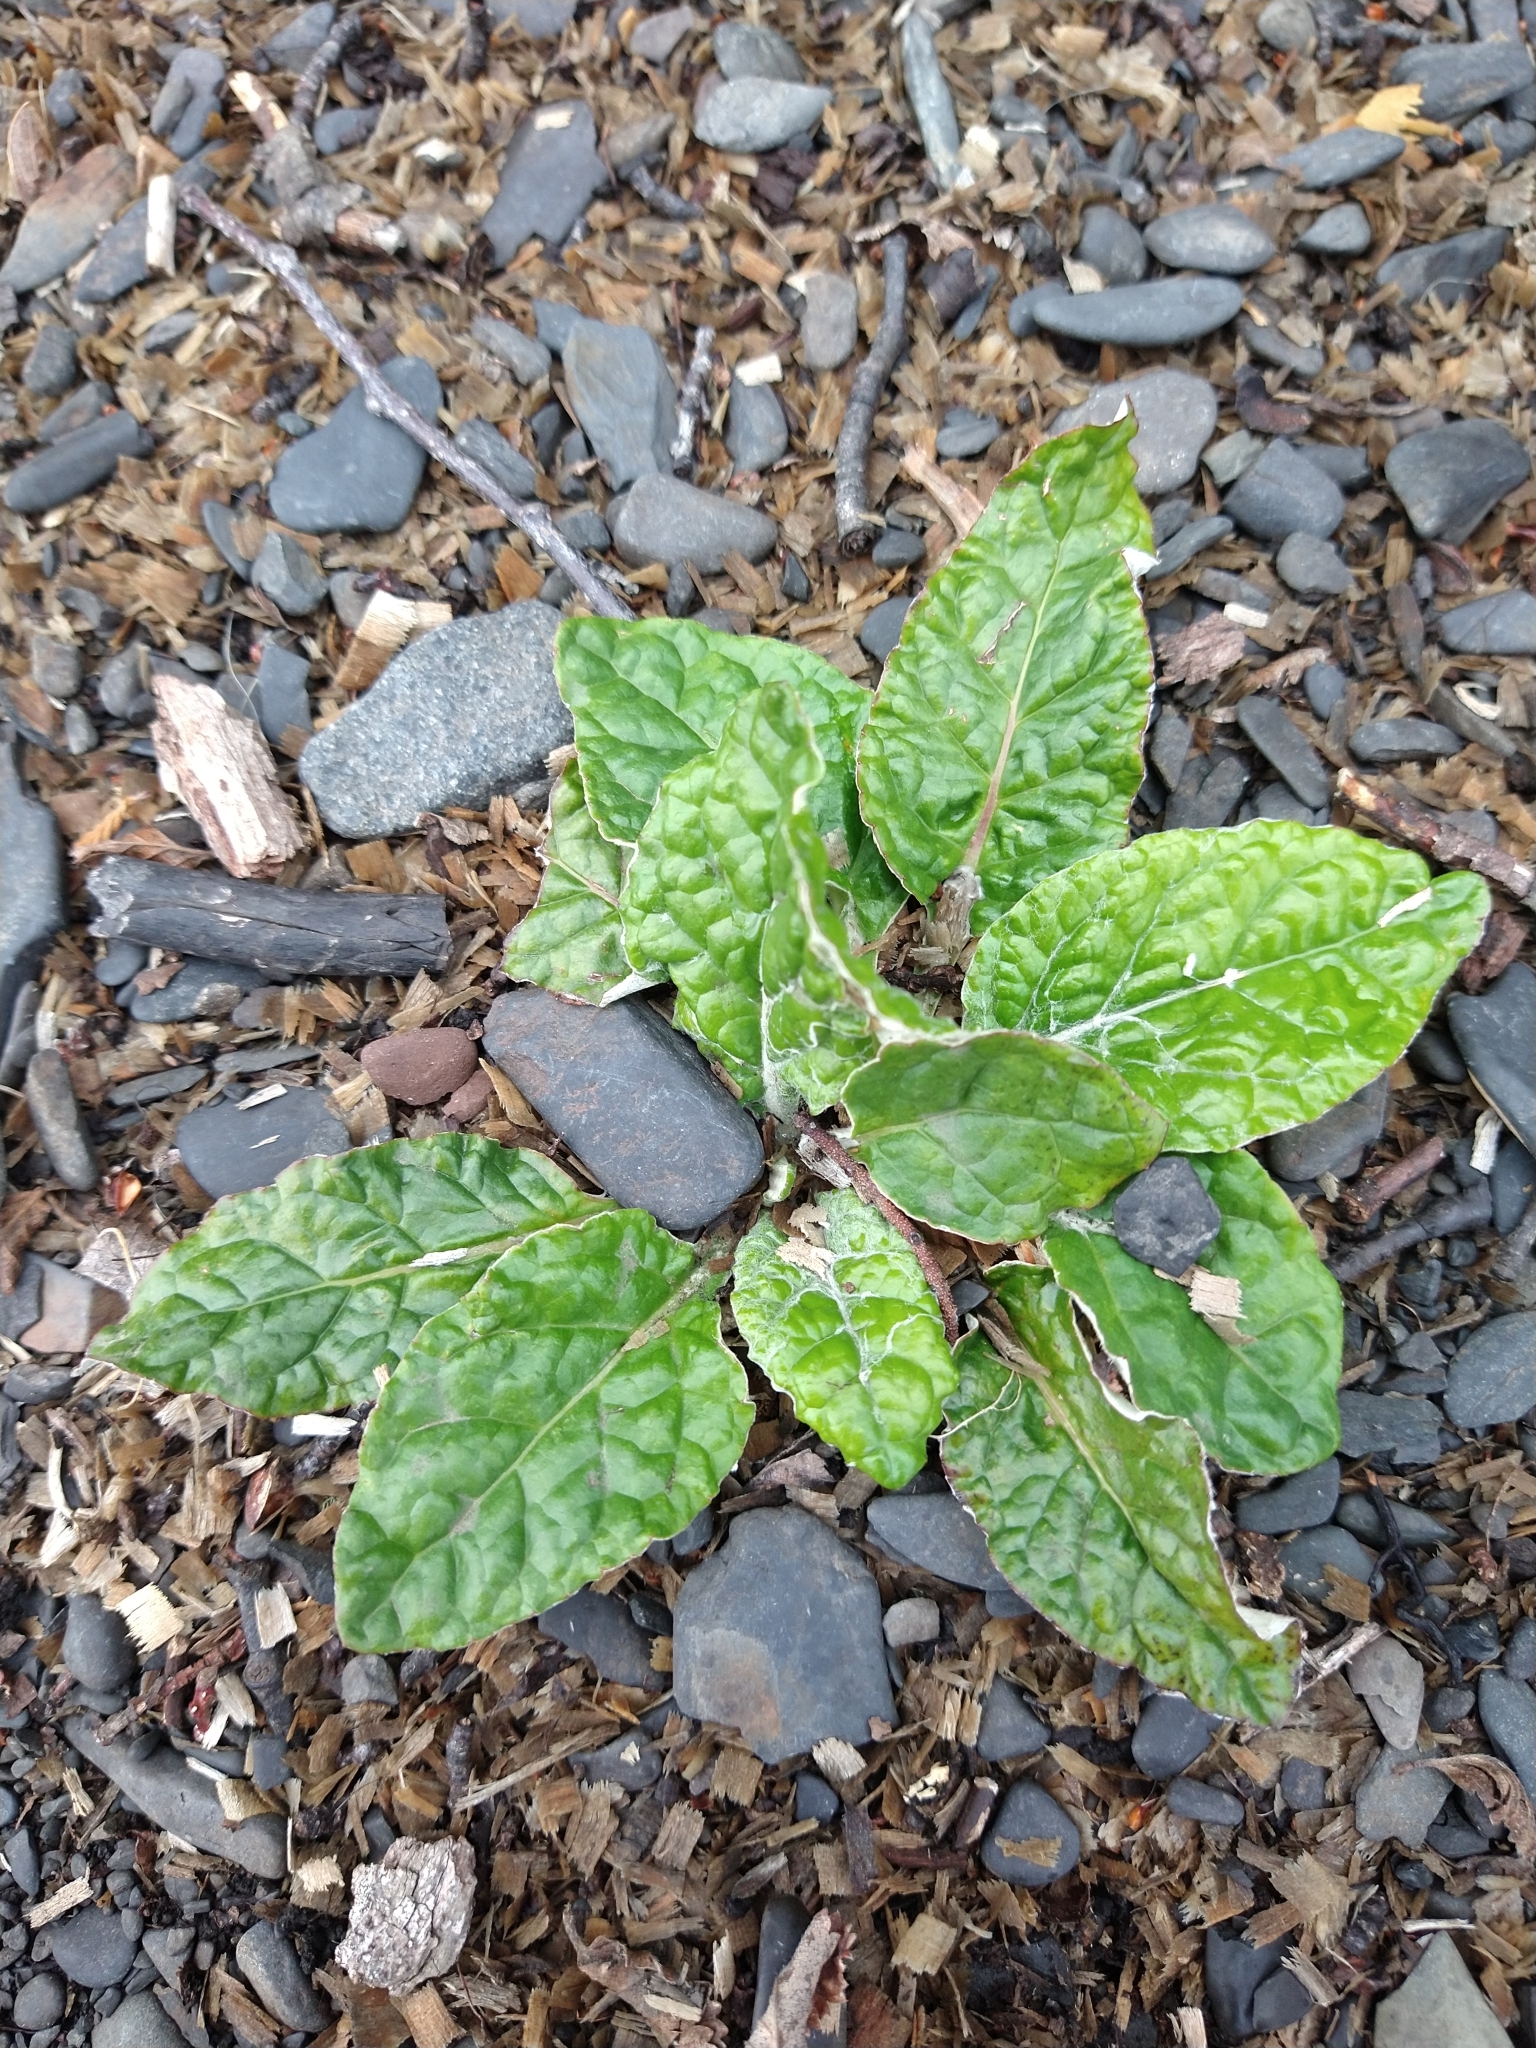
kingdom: Plantae
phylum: Tracheophyta
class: Magnoliopsida
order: Asterales
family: Asteraceae
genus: Adenocaulon
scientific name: Adenocaulon chilense
